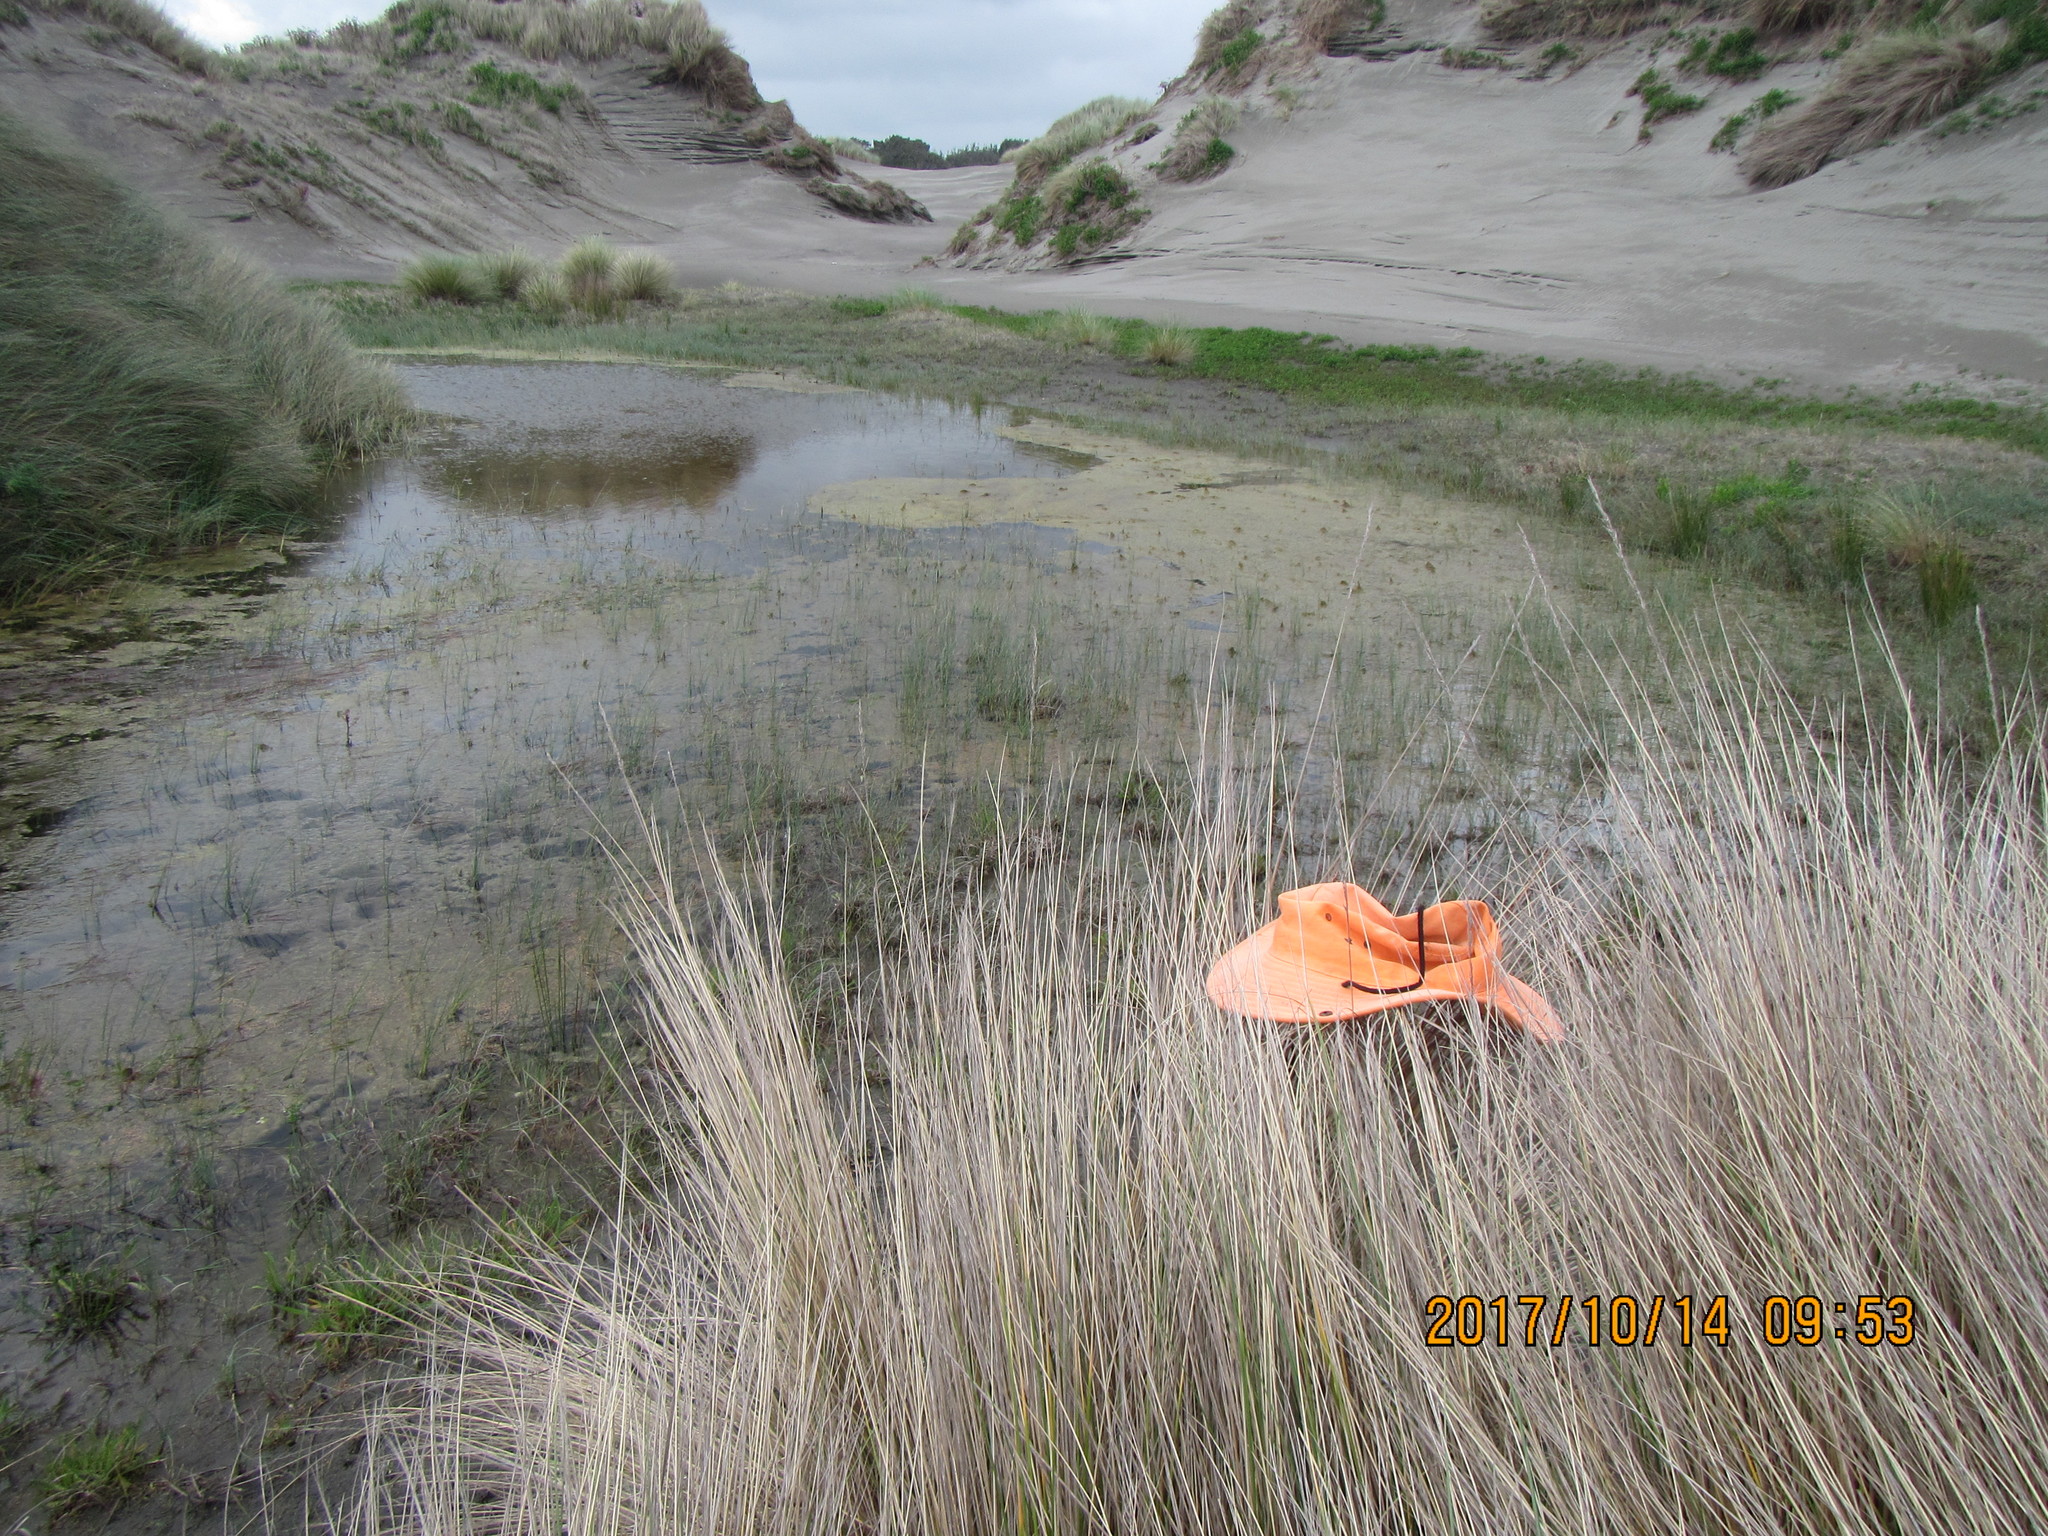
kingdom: Animalia
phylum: Mollusca
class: Gastropoda
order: Stylommatophora
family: Helicidae
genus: Cornu
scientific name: Cornu aspersum
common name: Brown garden snail
